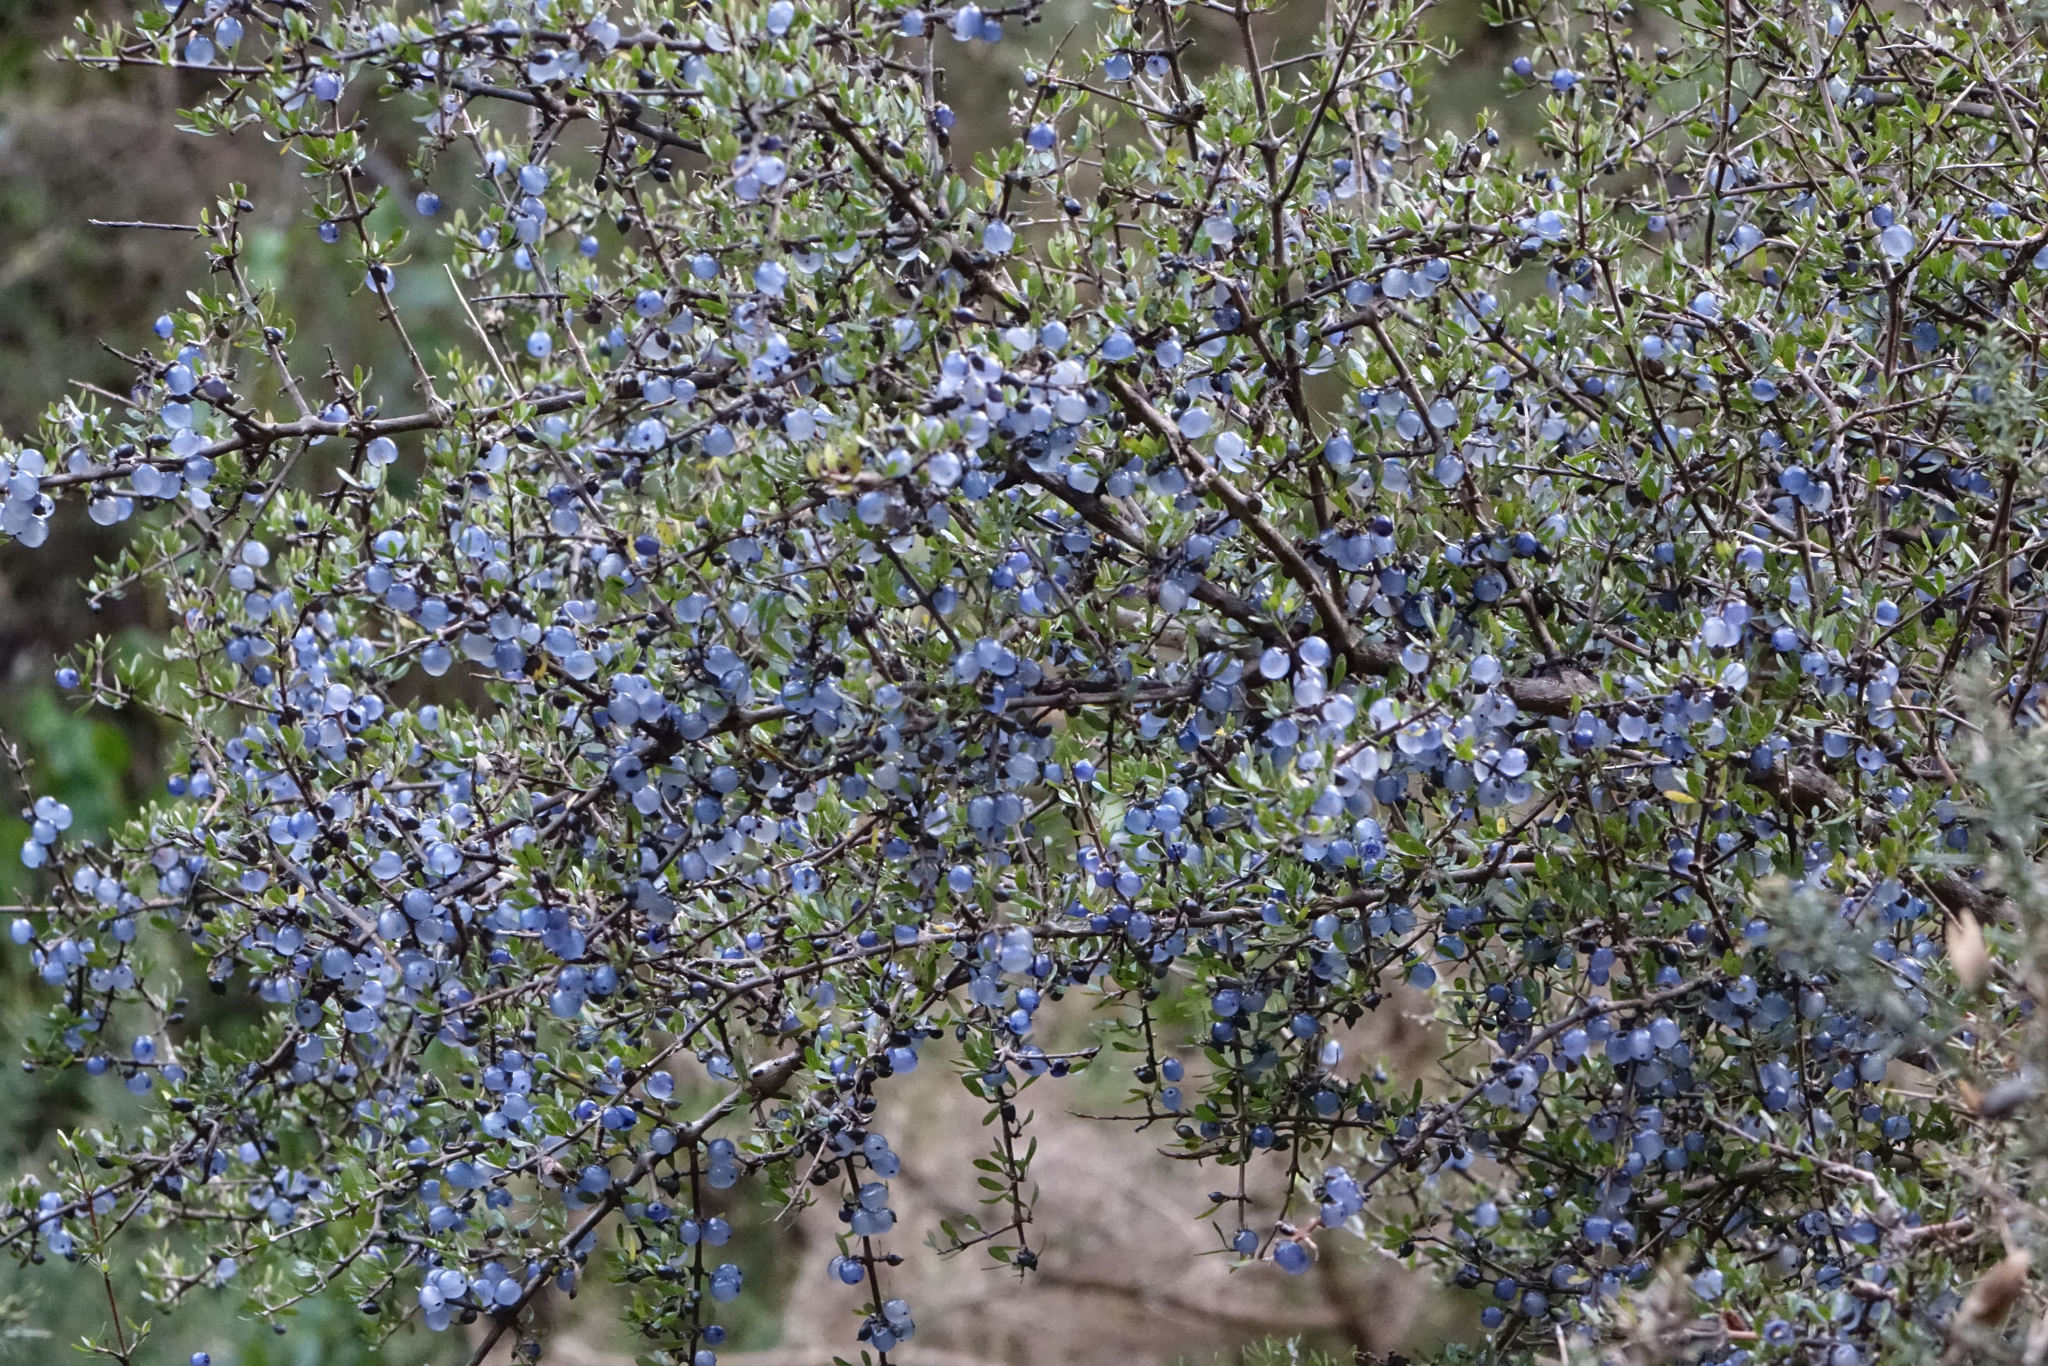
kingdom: Plantae
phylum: Tracheophyta
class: Magnoliopsida
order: Gentianales
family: Rubiaceae
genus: Coprosma
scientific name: Coprosma propinqua
